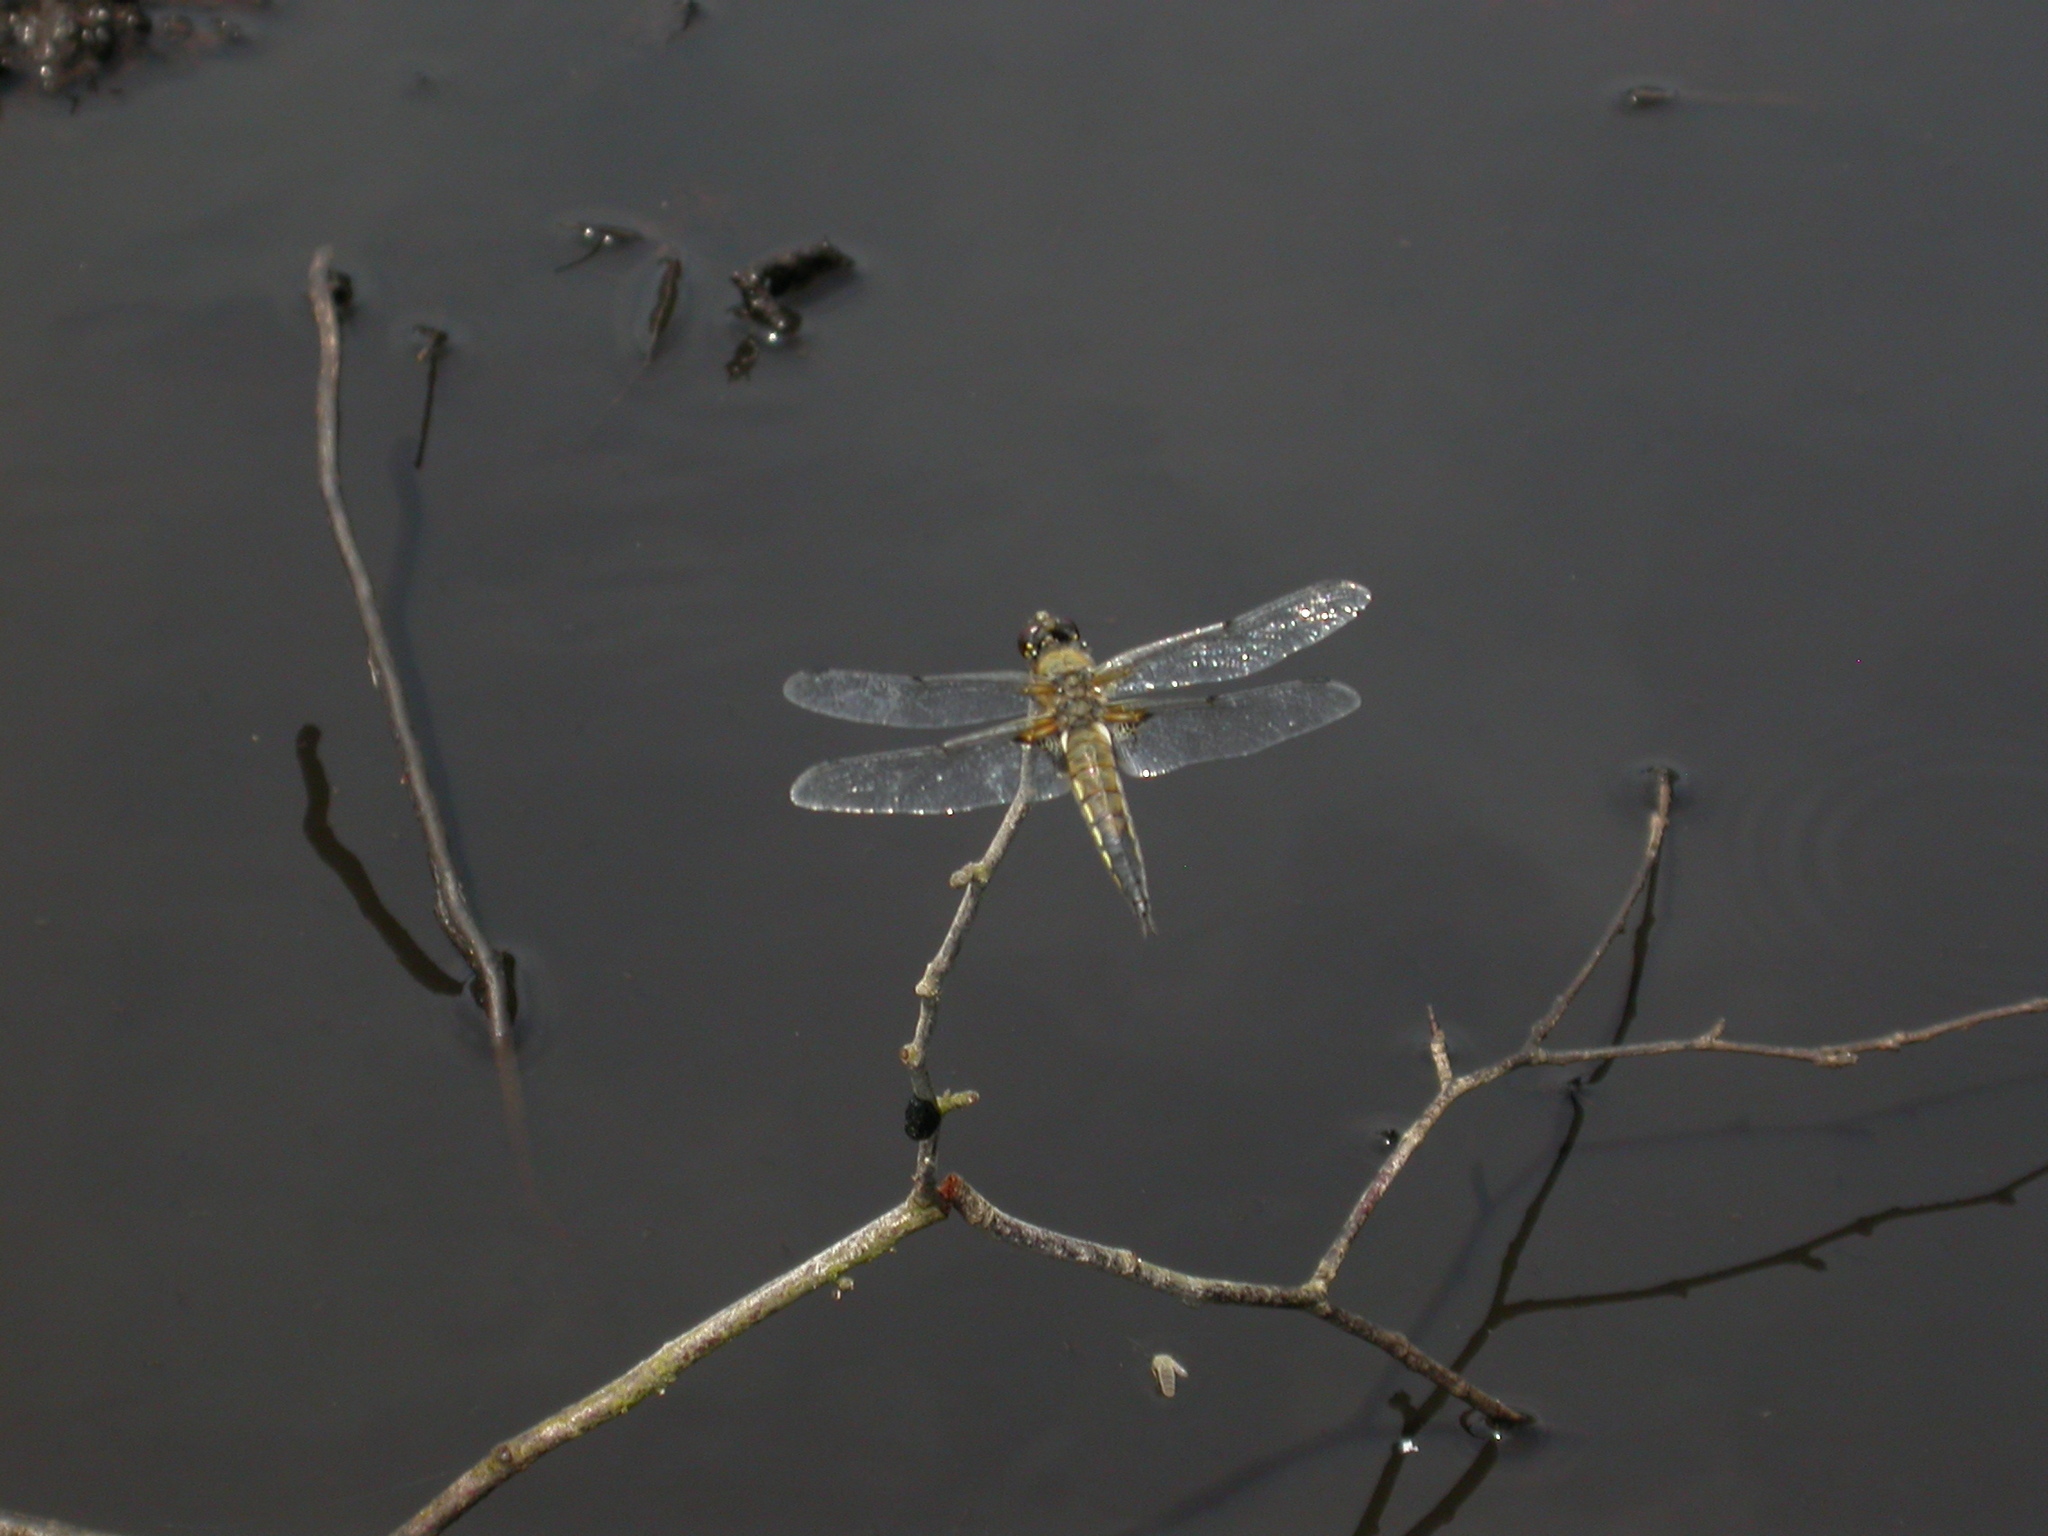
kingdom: Animalia
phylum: Arthropoda
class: Insecta
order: Odonata
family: Libellulidae
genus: Libellula
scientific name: Libellula quadrimaculata
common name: Four-spotted chaser
